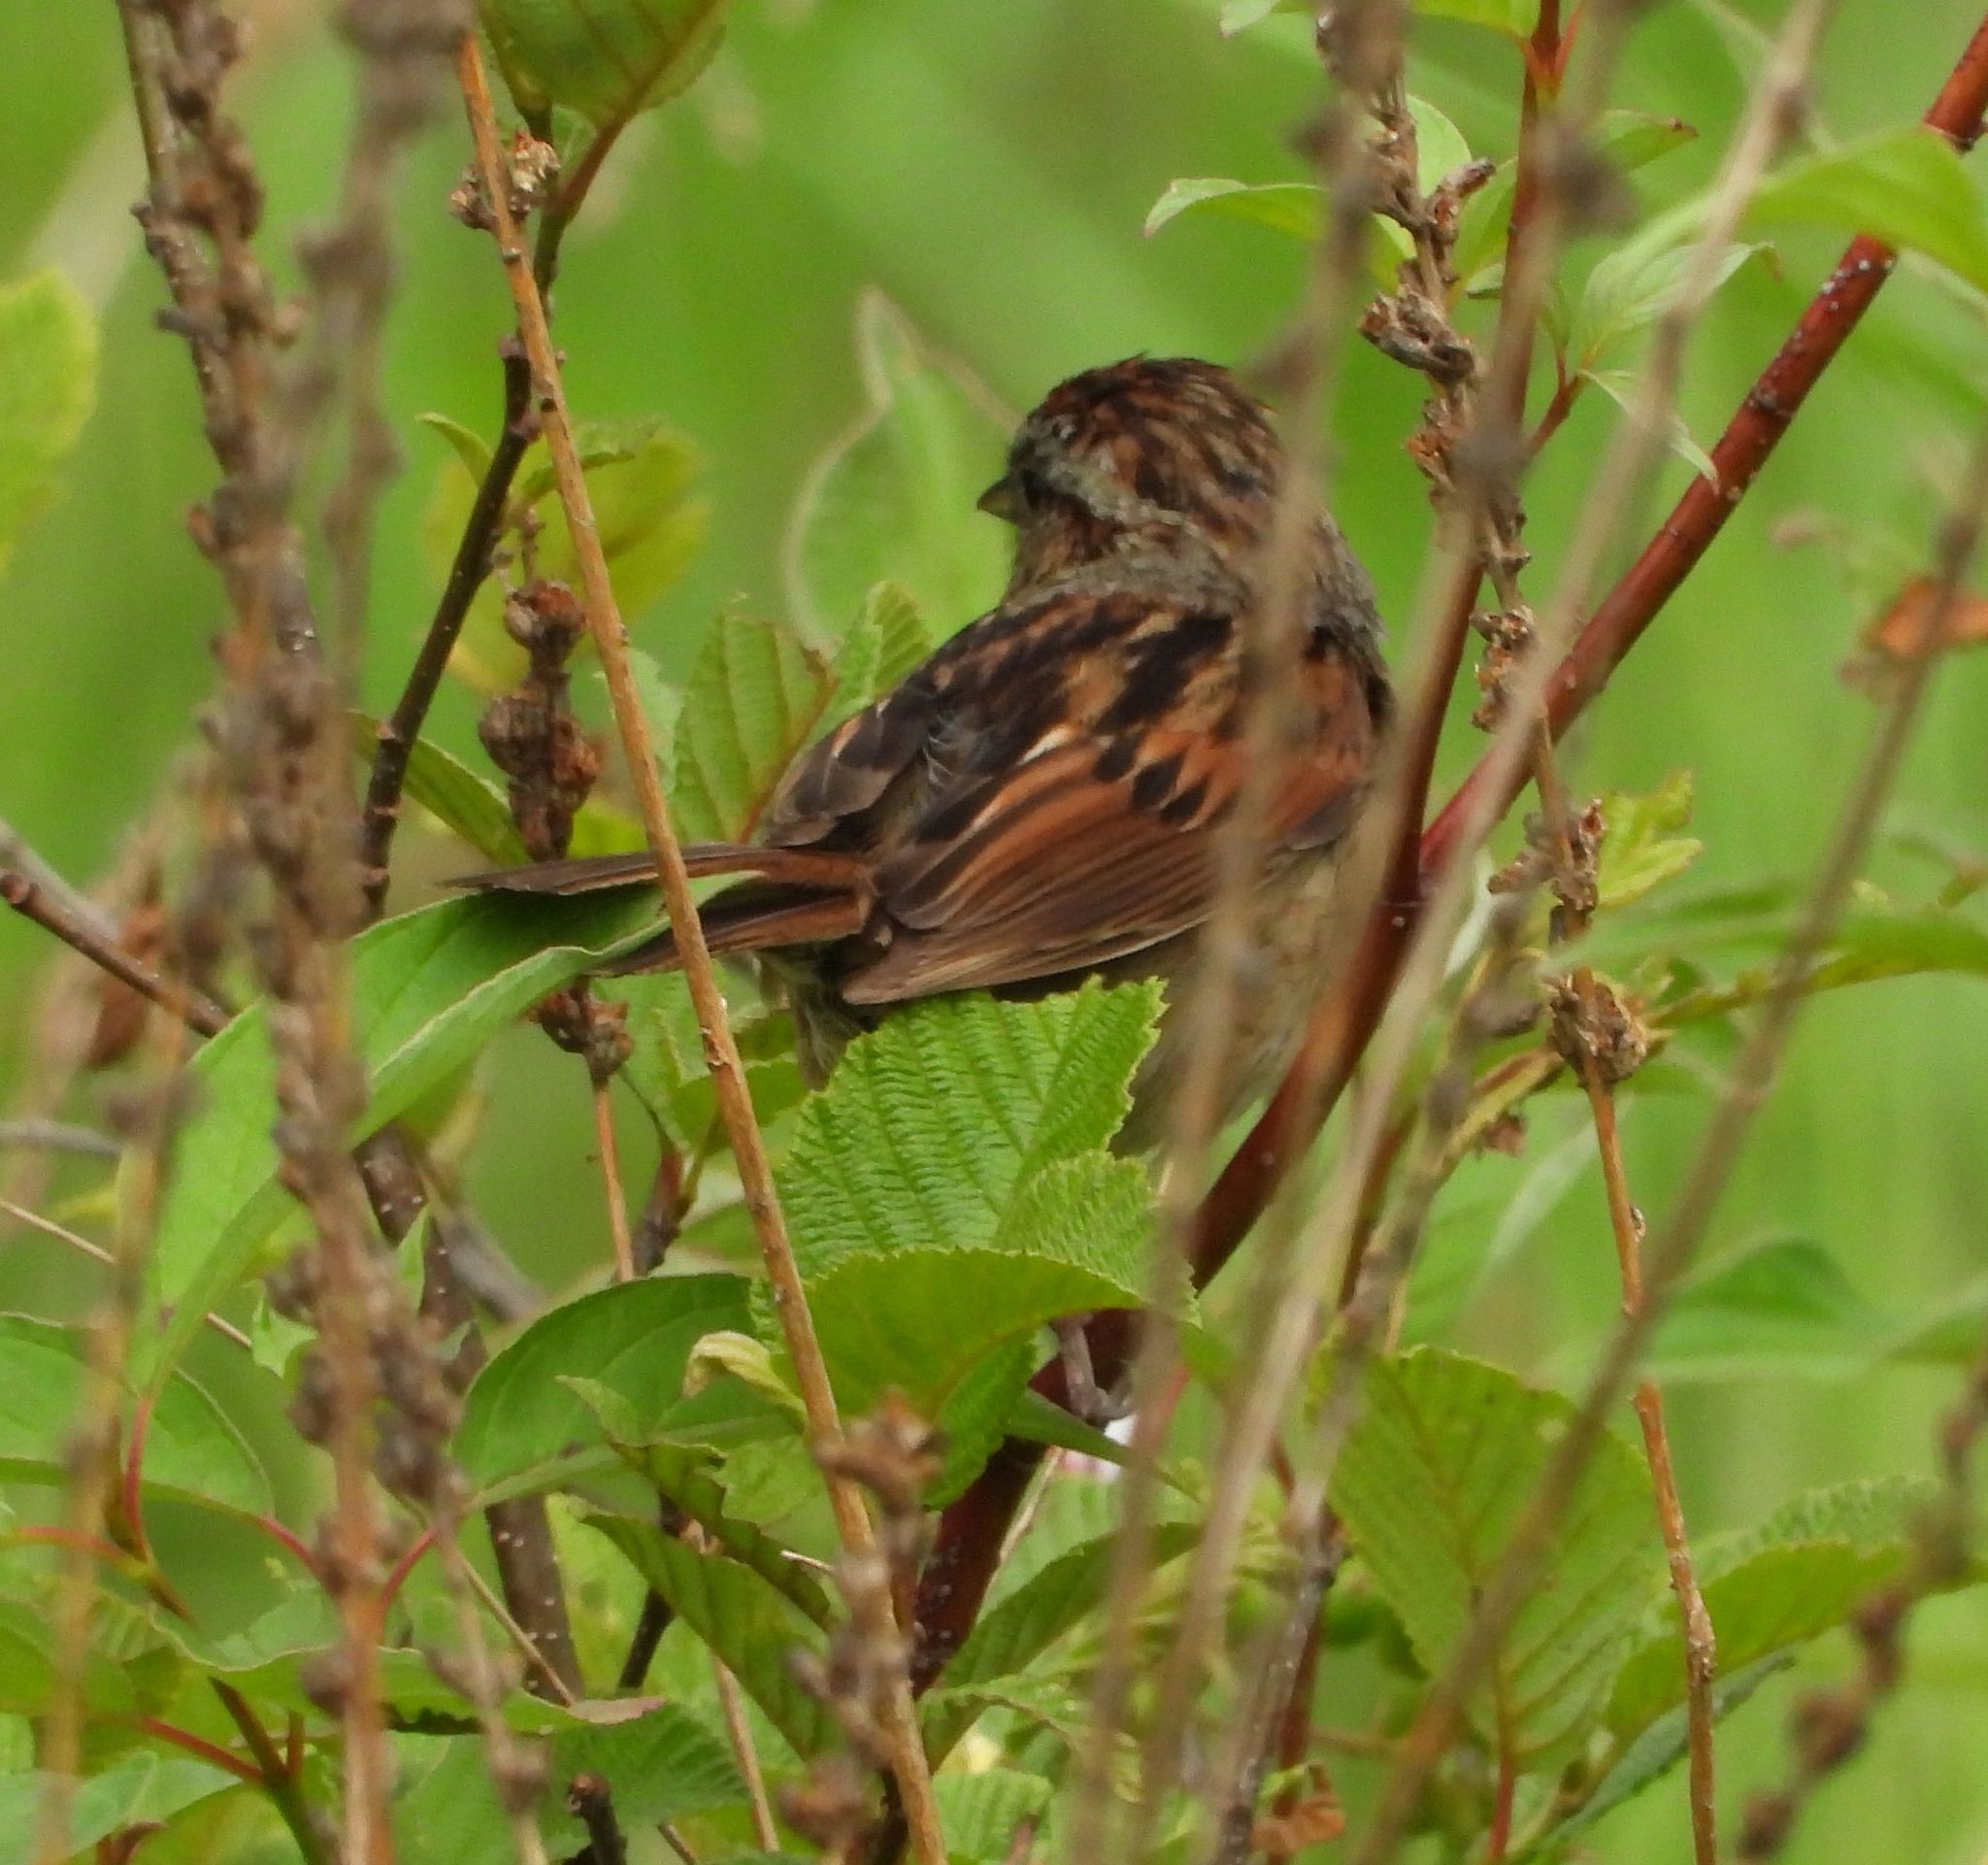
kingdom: Animalia
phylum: Chordata
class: Aves
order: Passeriformes
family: Passerellidae
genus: Melospiza
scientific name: Melospiza georgiana
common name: Swamp sparrow
